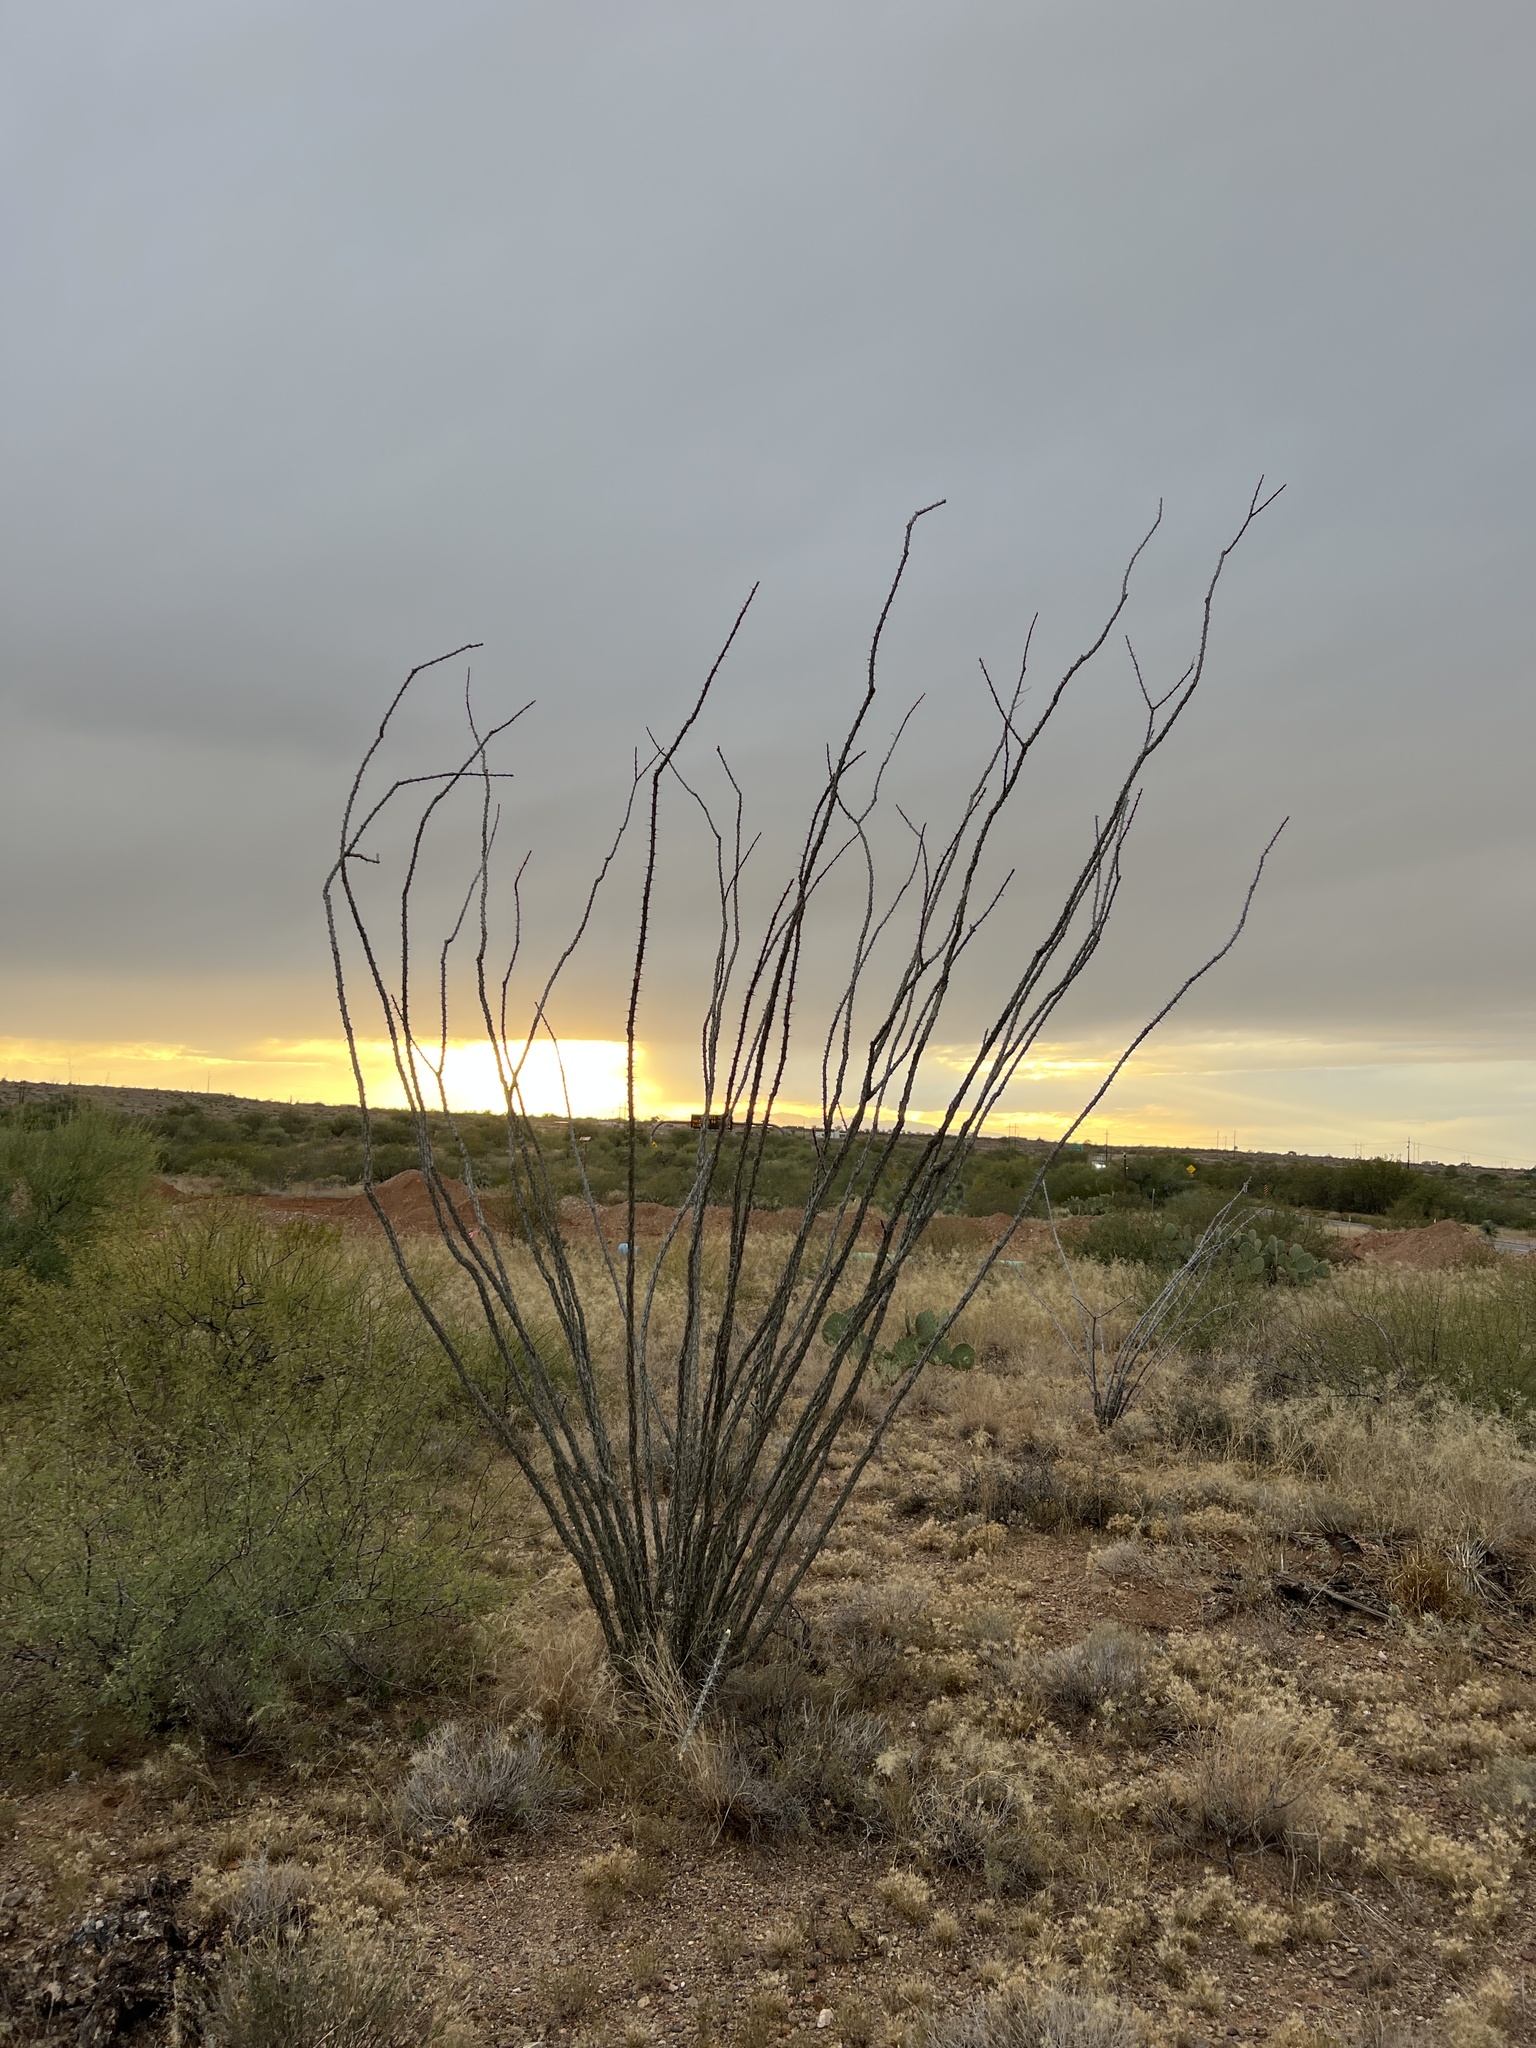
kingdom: Plantae
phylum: Tracheophyta
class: Magnoliopsida
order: Ericales
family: Fouquieriaceae
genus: Fouquieria
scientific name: Fouquieria splendens
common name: Vine-cactus
